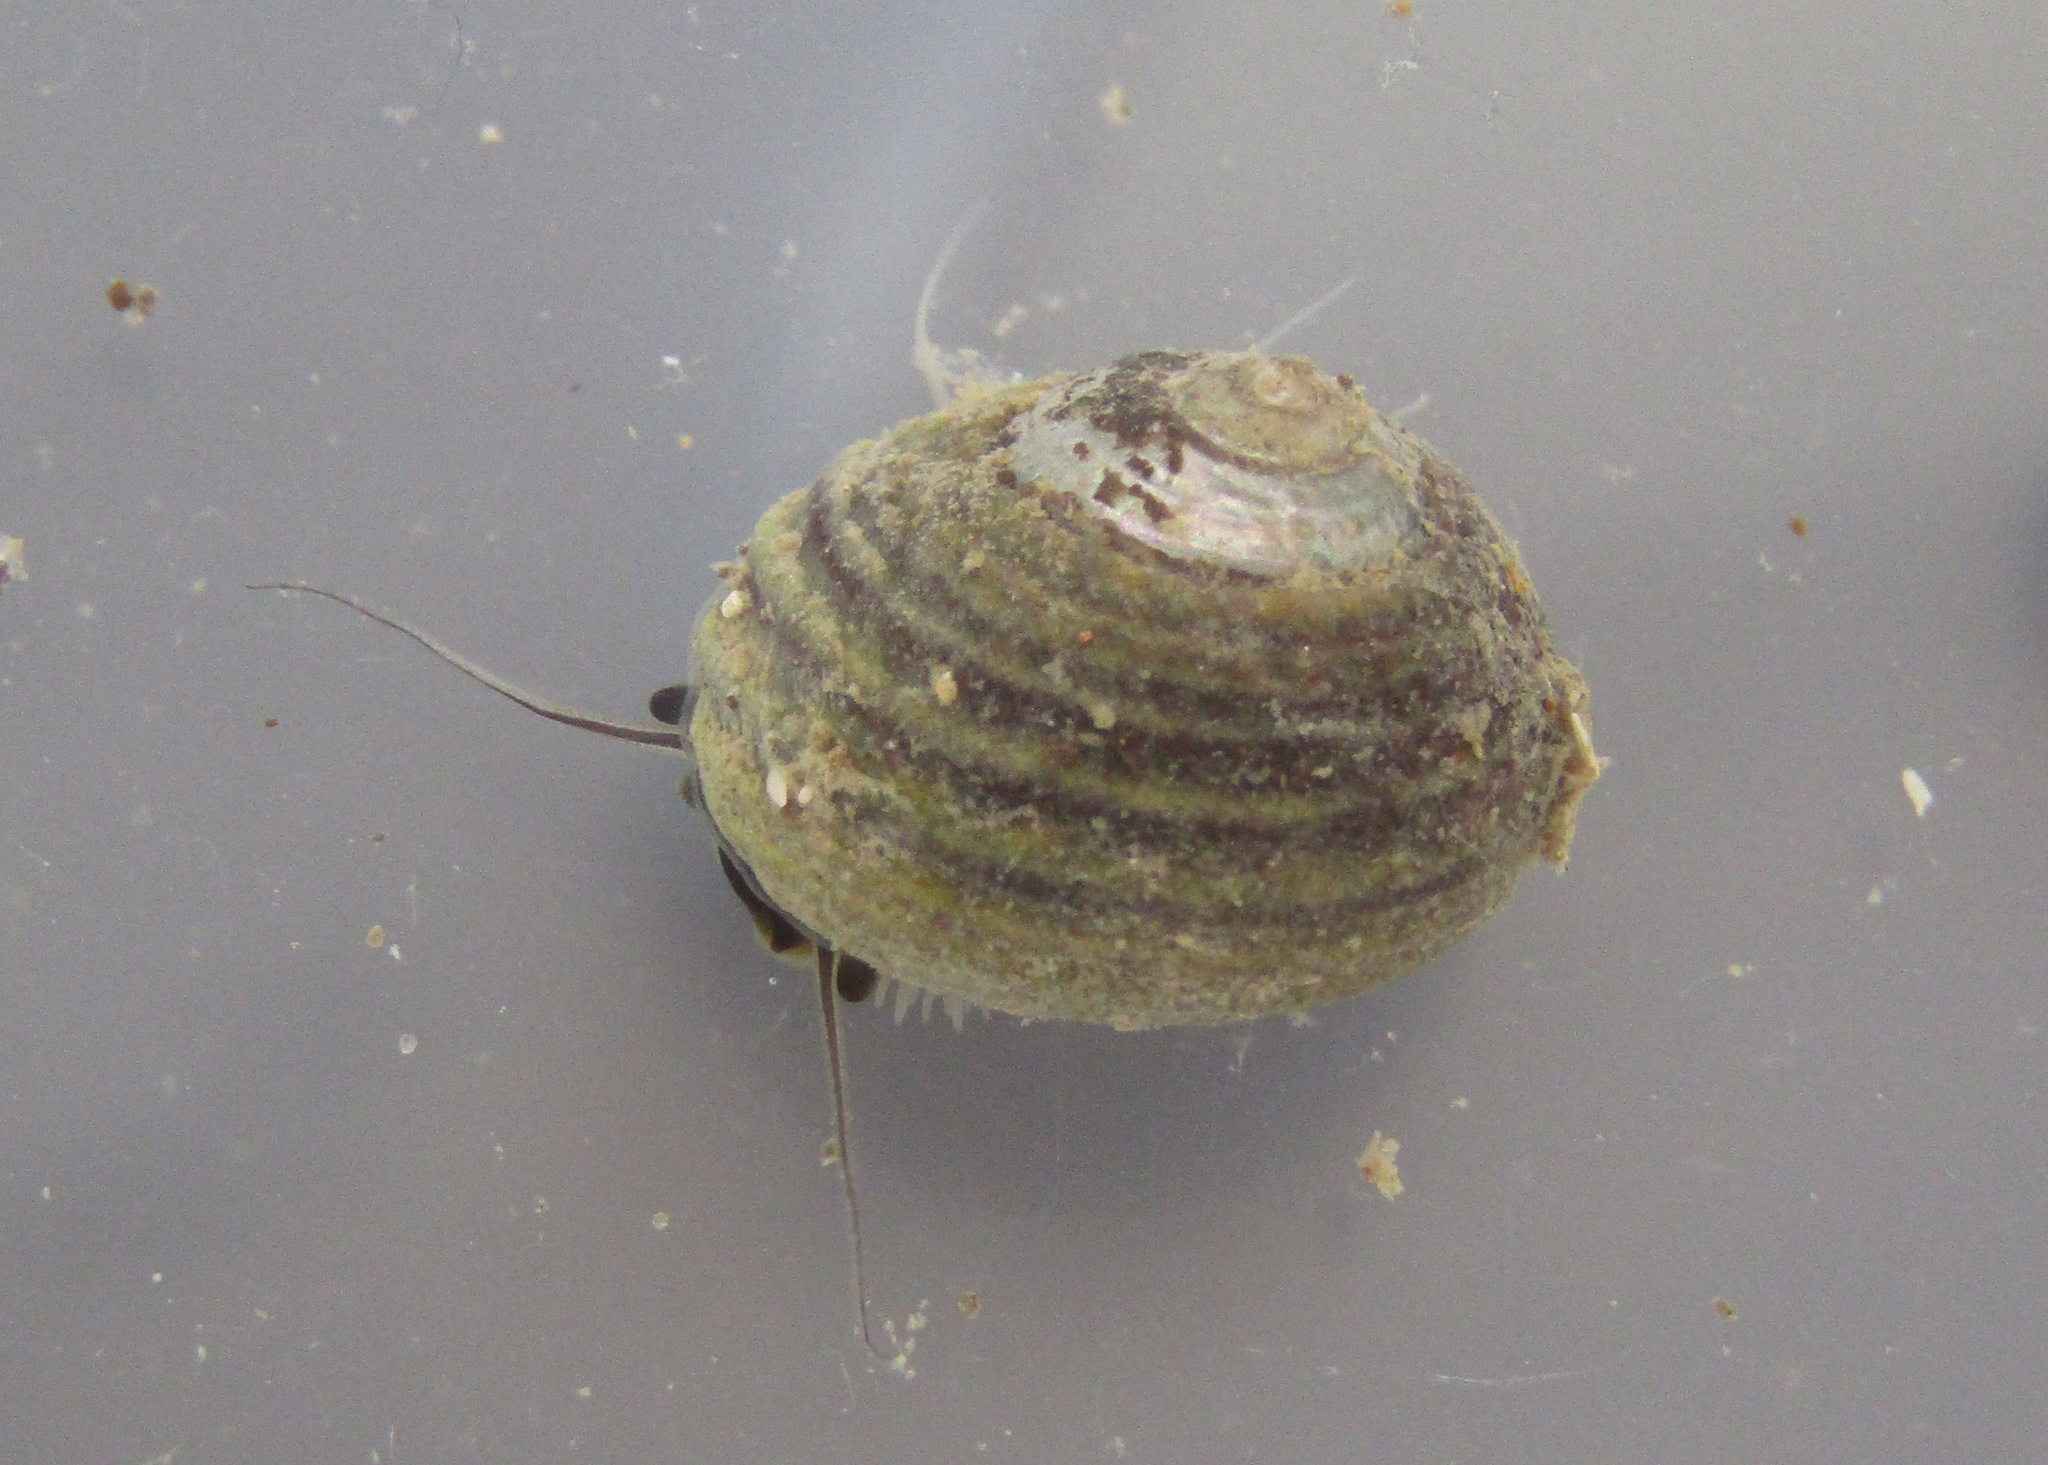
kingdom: Animalia
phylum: Mollusca
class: Gastropoda
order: Trochida
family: Trochidae
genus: Diloma
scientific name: Diloma subrostratum
